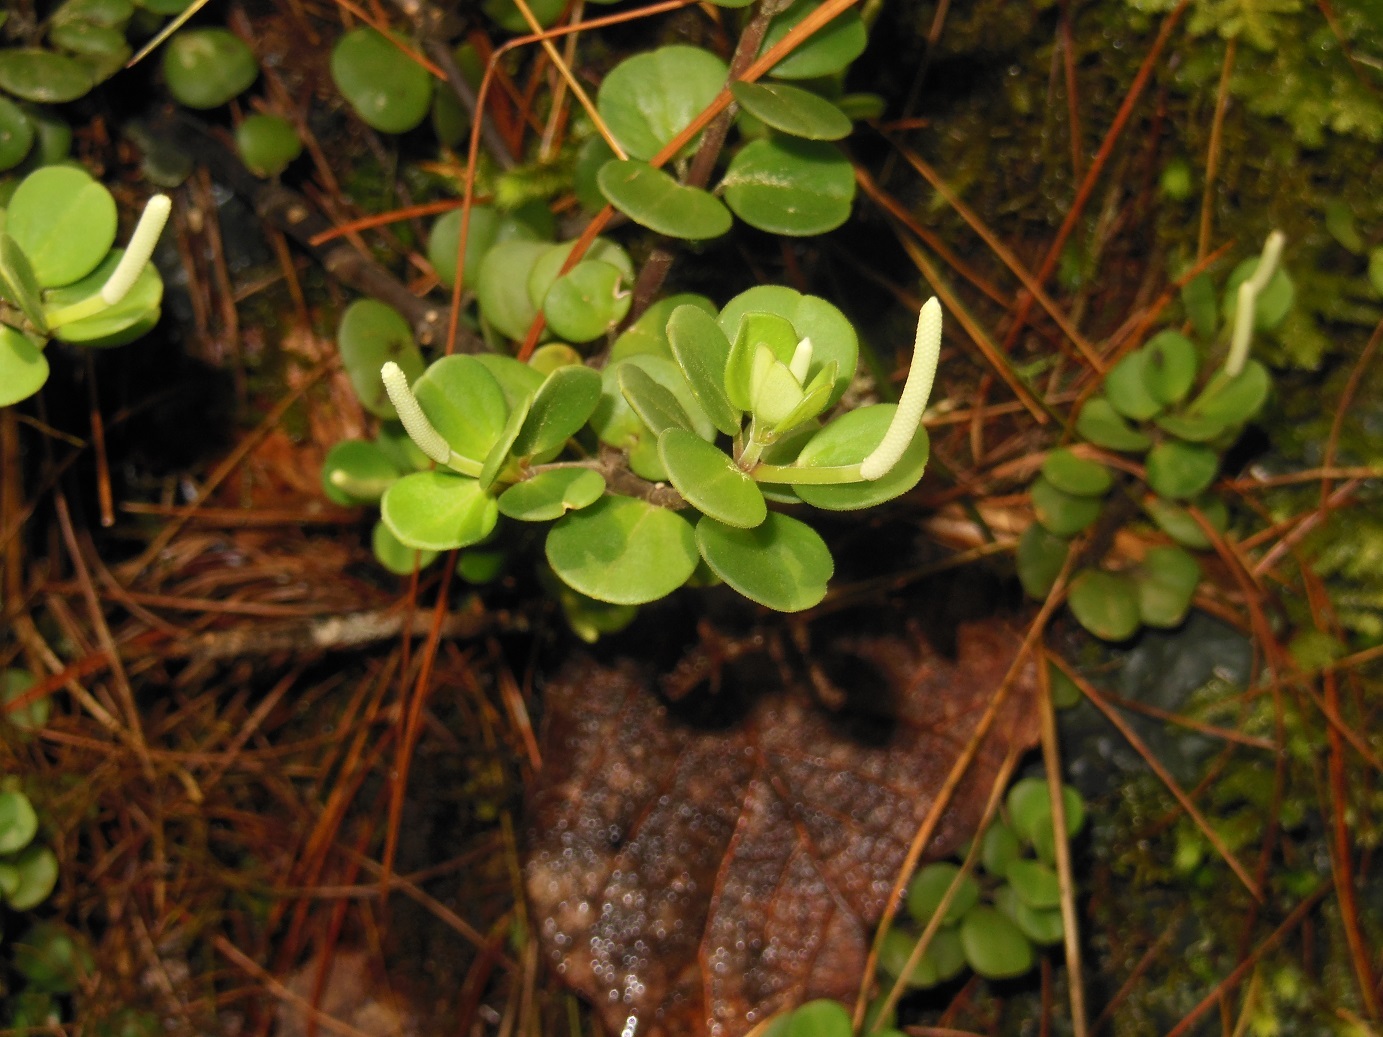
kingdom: Plantae
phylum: Tracheophyta
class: Magnoliopsida
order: Piperales
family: Piperaceae
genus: Peperomia
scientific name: Peperomia berlandieri
